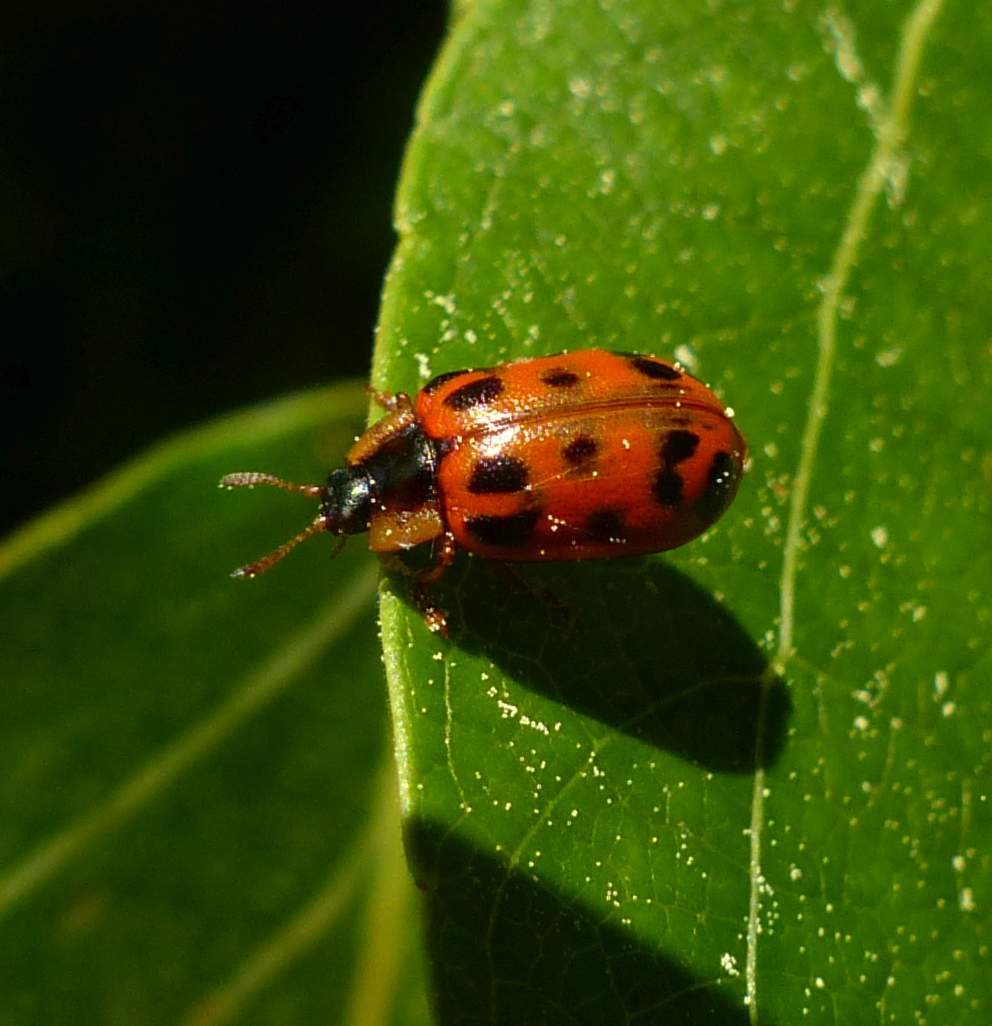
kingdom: Animalia
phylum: Arthropoda
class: Insecta
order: Coleoptera
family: Chrysomelidae
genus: Chrysomela
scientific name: Chrysomela mainensis
